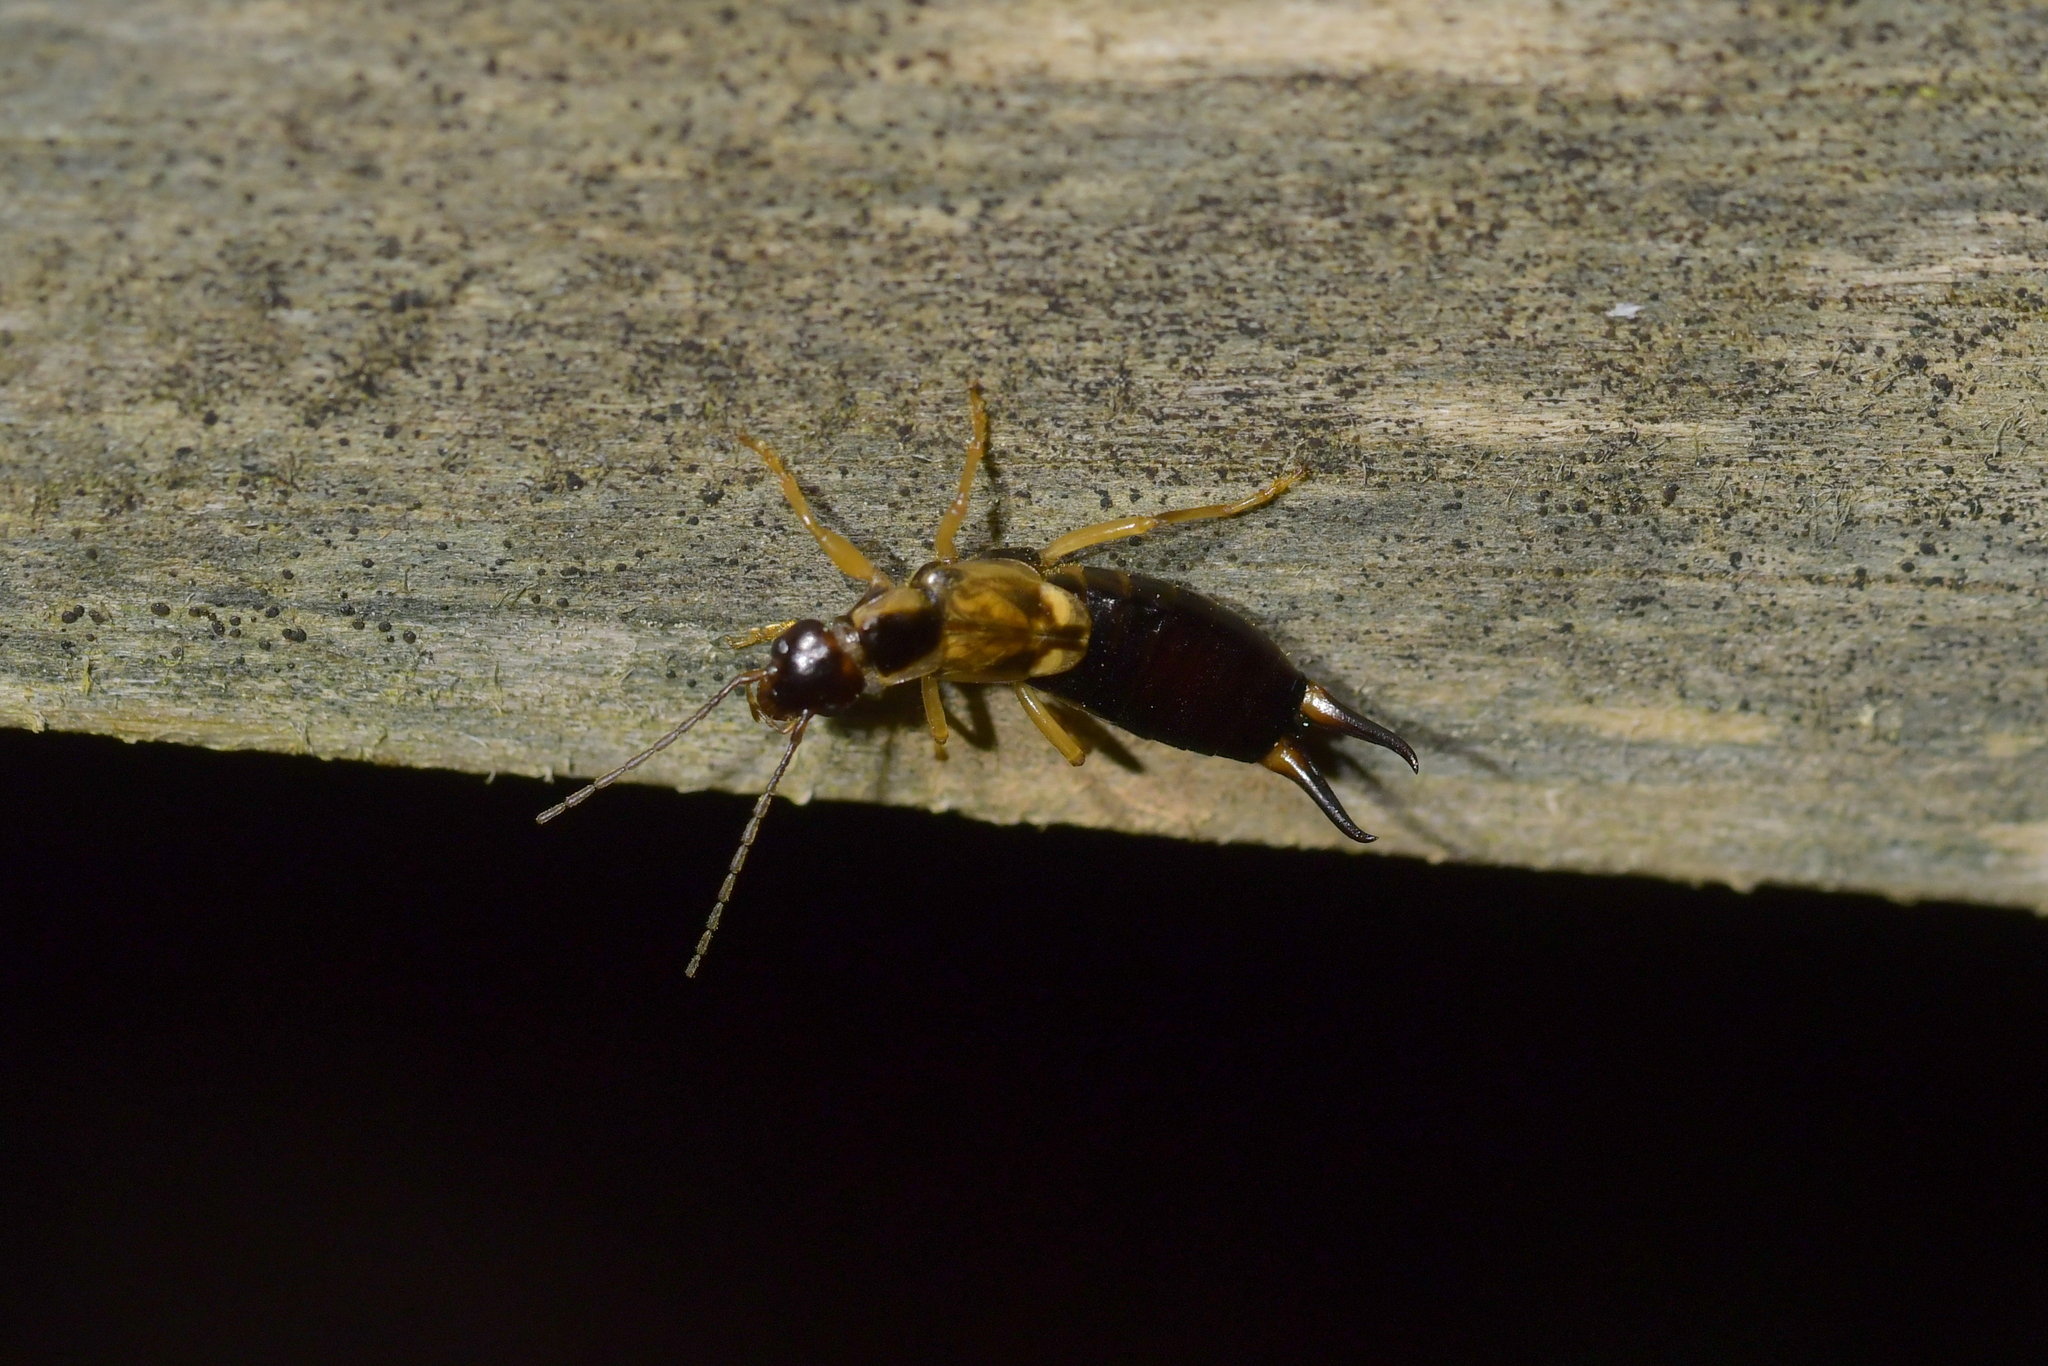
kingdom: Animalia
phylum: Arthropoda
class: Insecta
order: Dermaptera
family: Forficulidae
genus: Forficula
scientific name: Forficula
